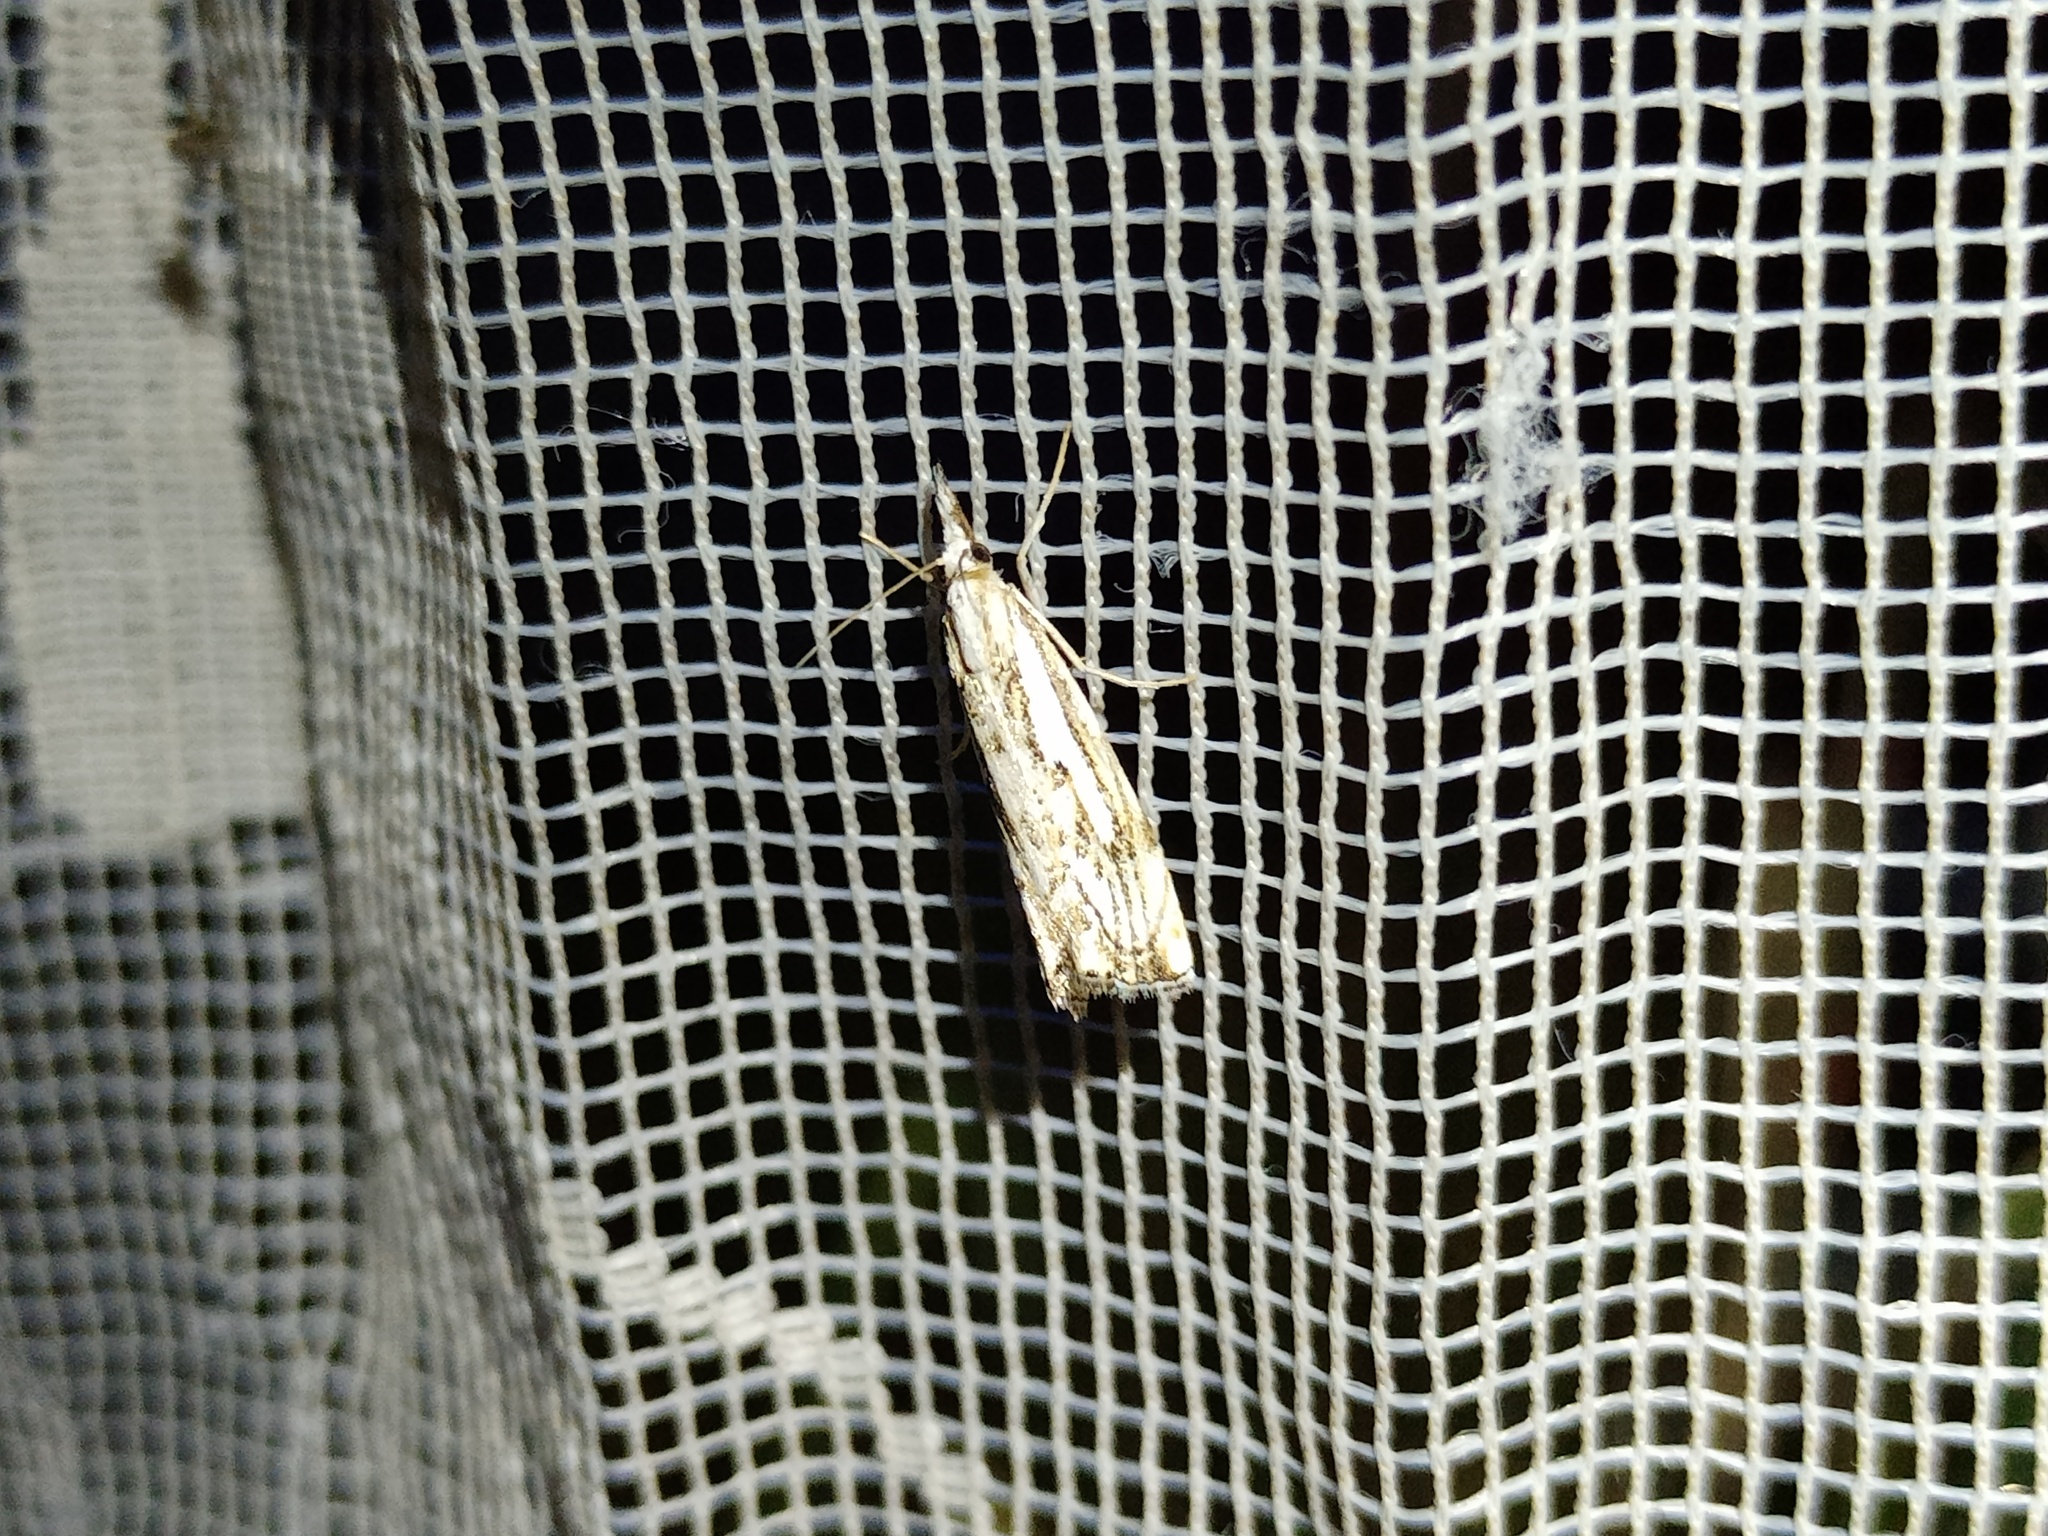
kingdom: Animalia
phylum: Arthropoda
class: Insecta
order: Lepidoptera
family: Crambidae
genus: Catoptria
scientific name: Catoptria falsella
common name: Chequered grass-veneer
